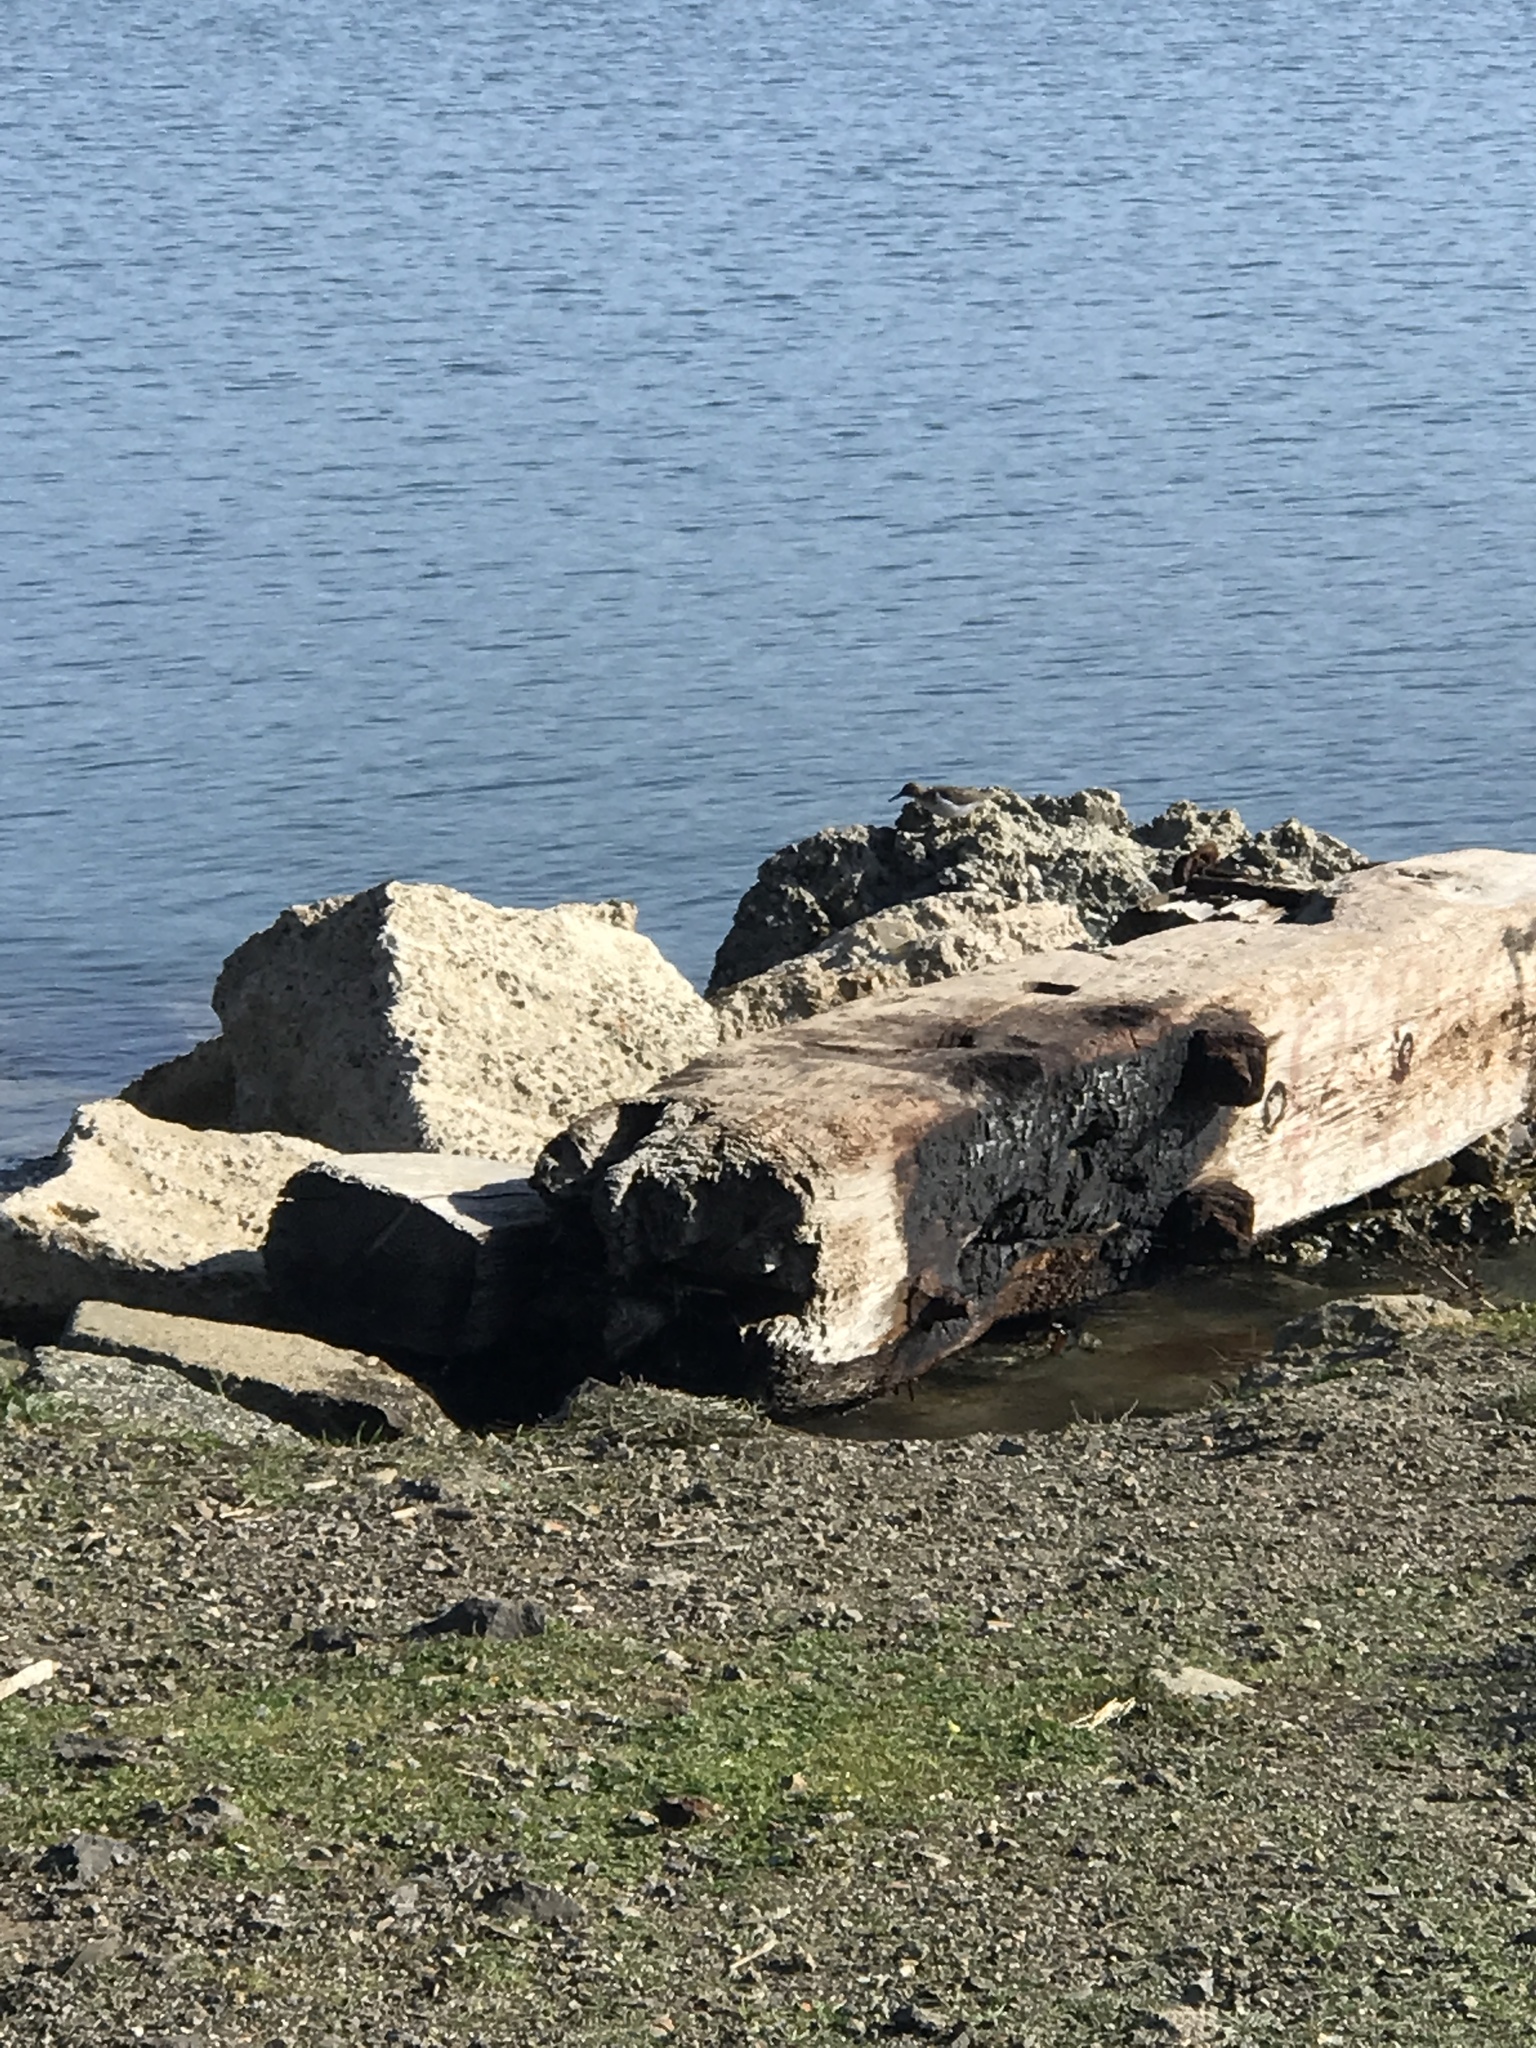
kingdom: Animalia
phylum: Chordata
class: Aves
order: Charadriiformes
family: Scolopacidae
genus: Actitis
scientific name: Actitis macularius
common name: Spotted sandpiper
